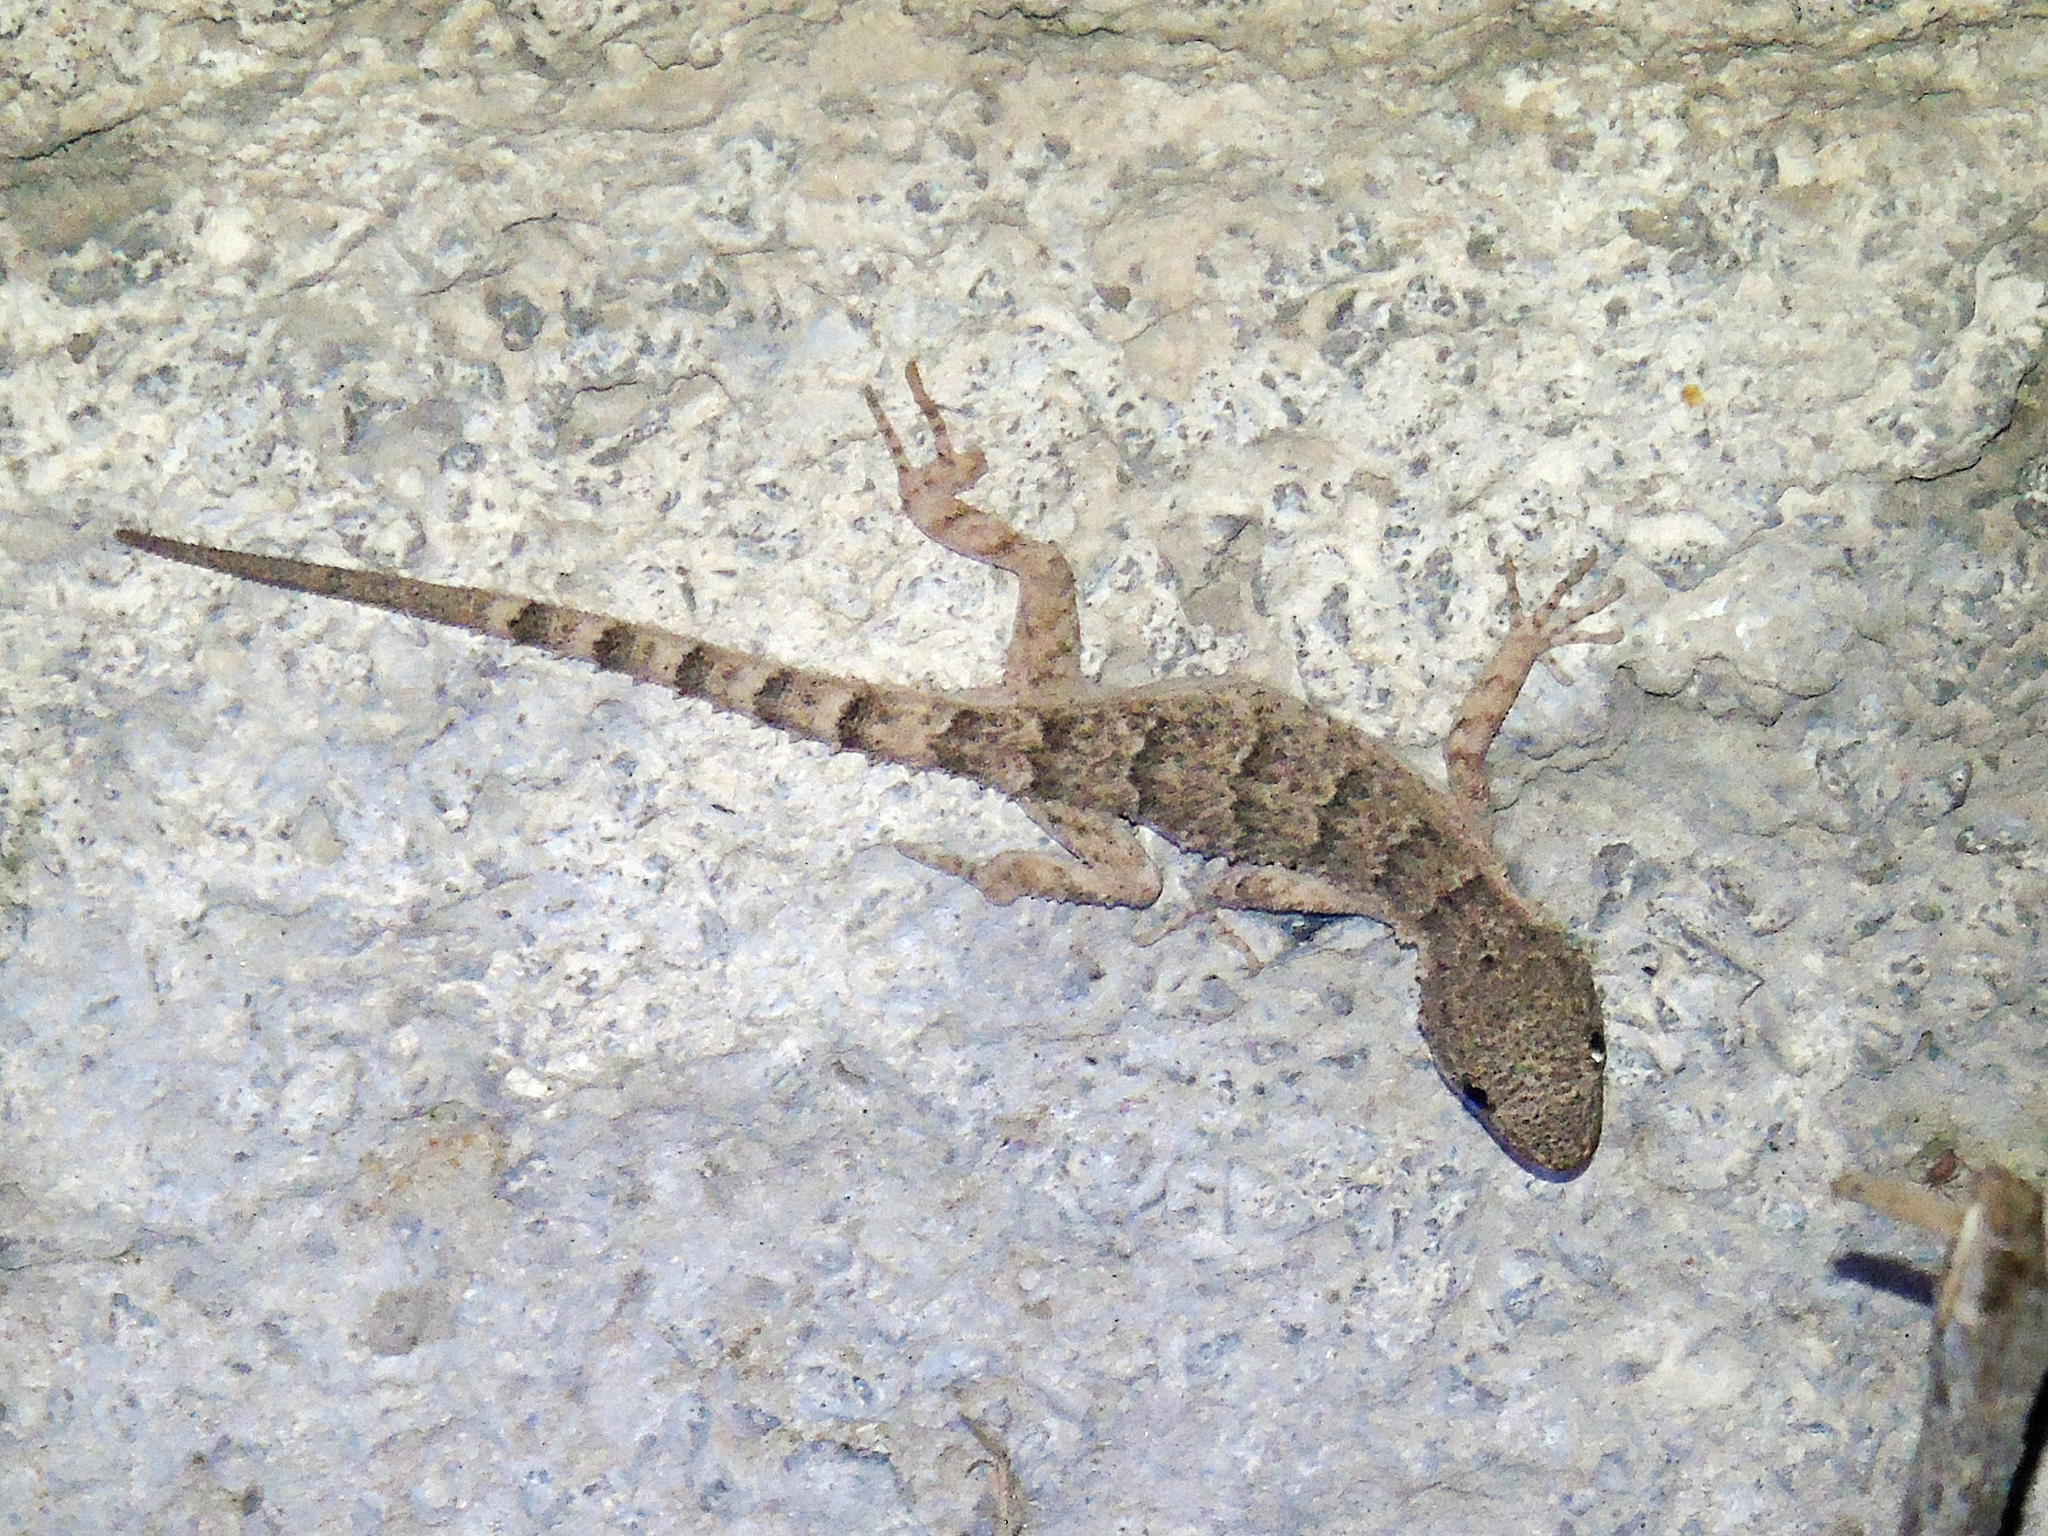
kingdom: Animalia
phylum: Chordata
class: Squamata
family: Gekkonidae
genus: Mediodactylus
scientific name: Mediodactylus russowii
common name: Grey thin-toed gecko
